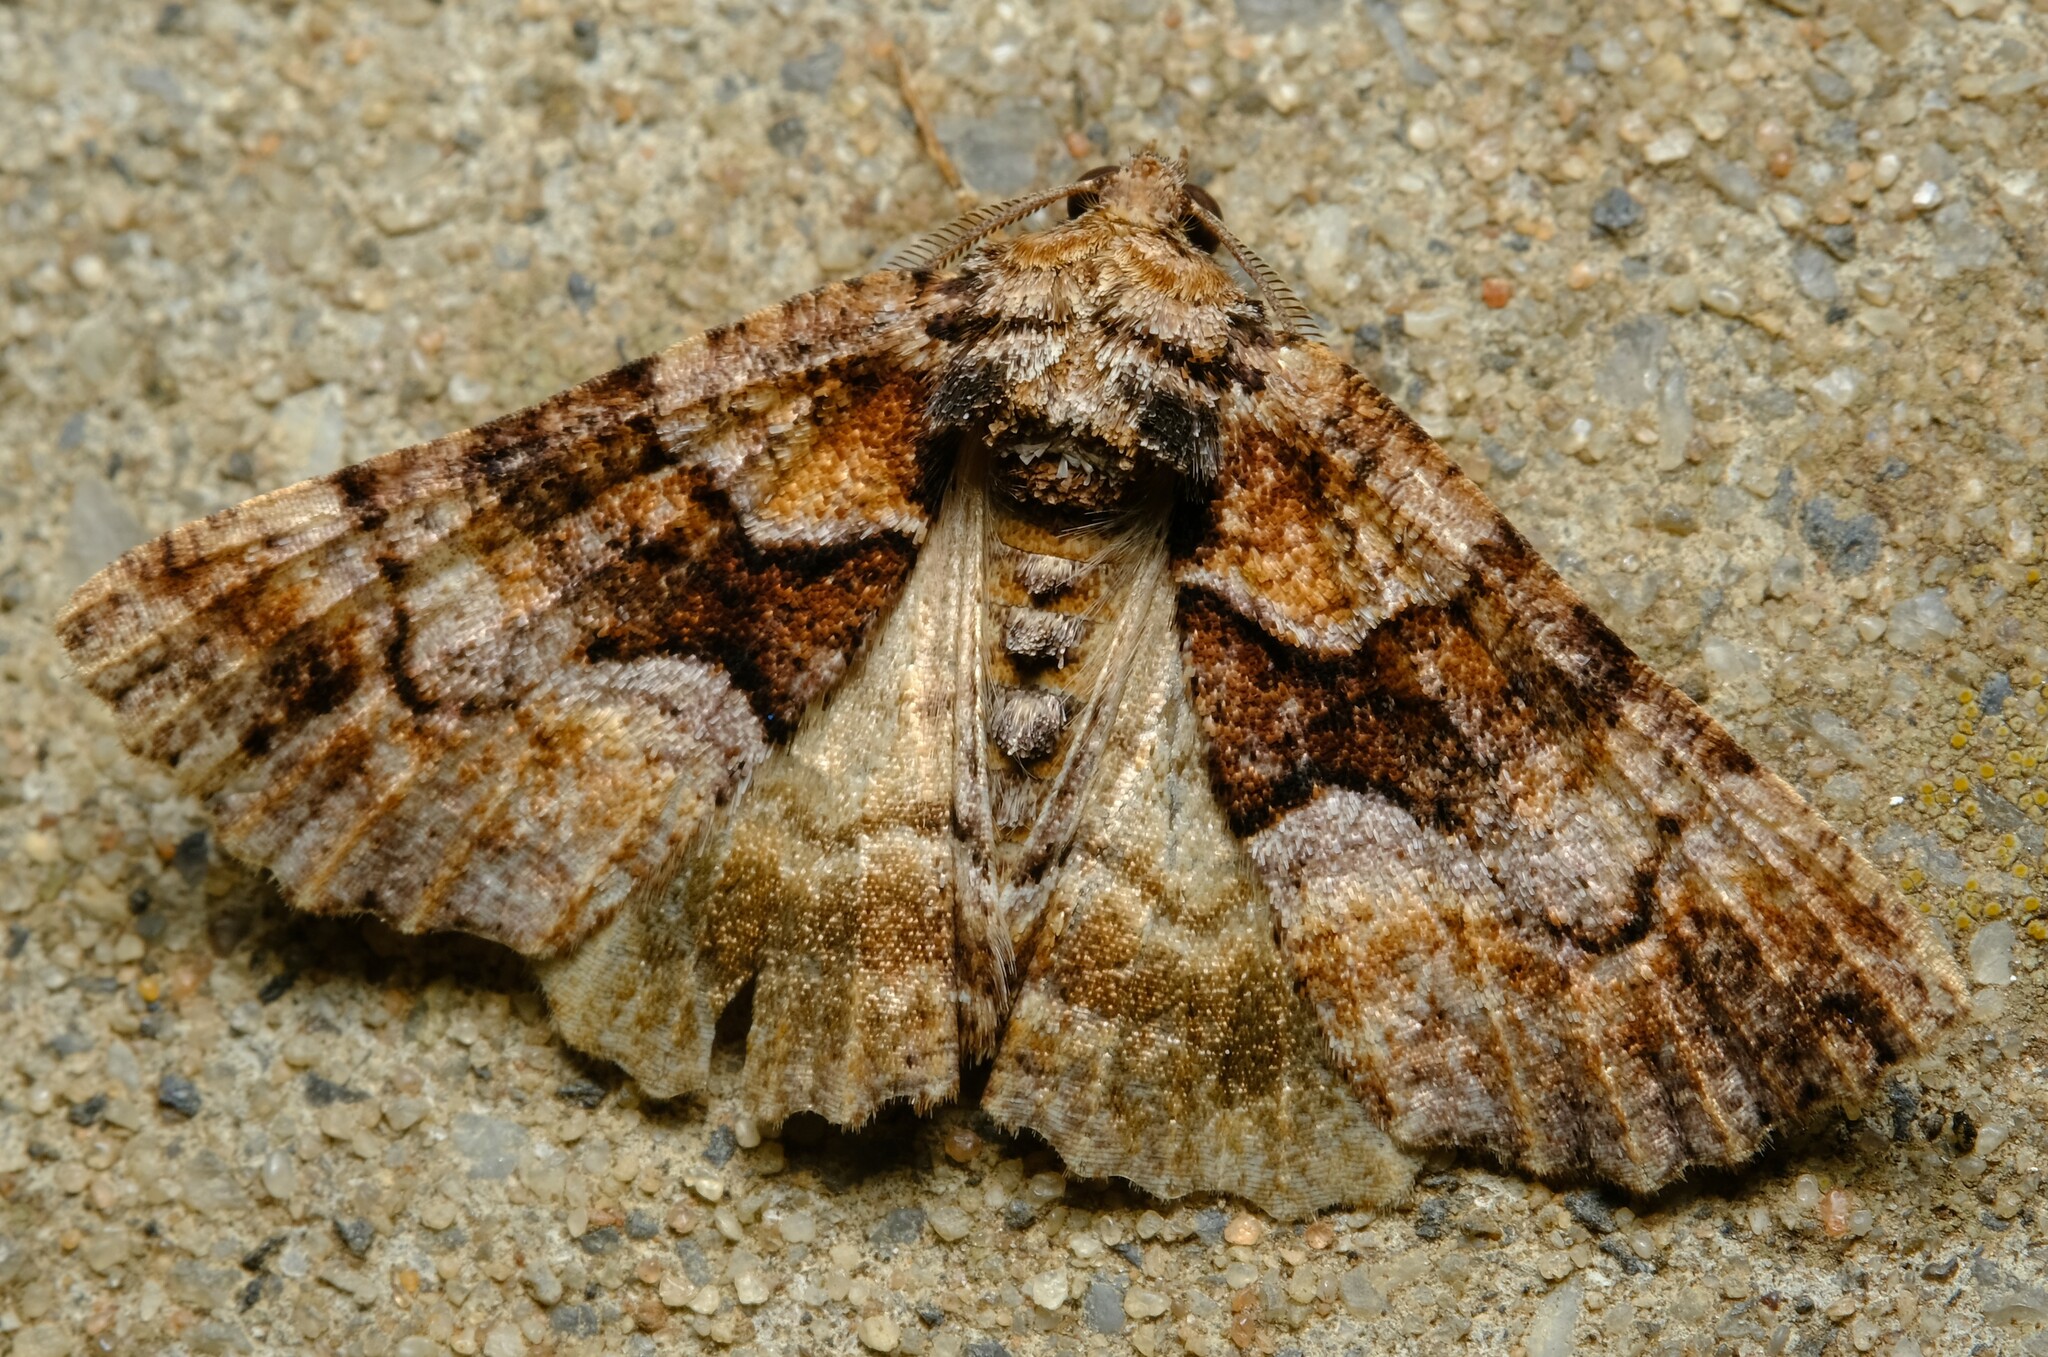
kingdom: Animalia
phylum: Arthropoda
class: Insecta
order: Lepidoptera
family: Geometridae
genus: Gastrina
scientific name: Gastrina cristaria
